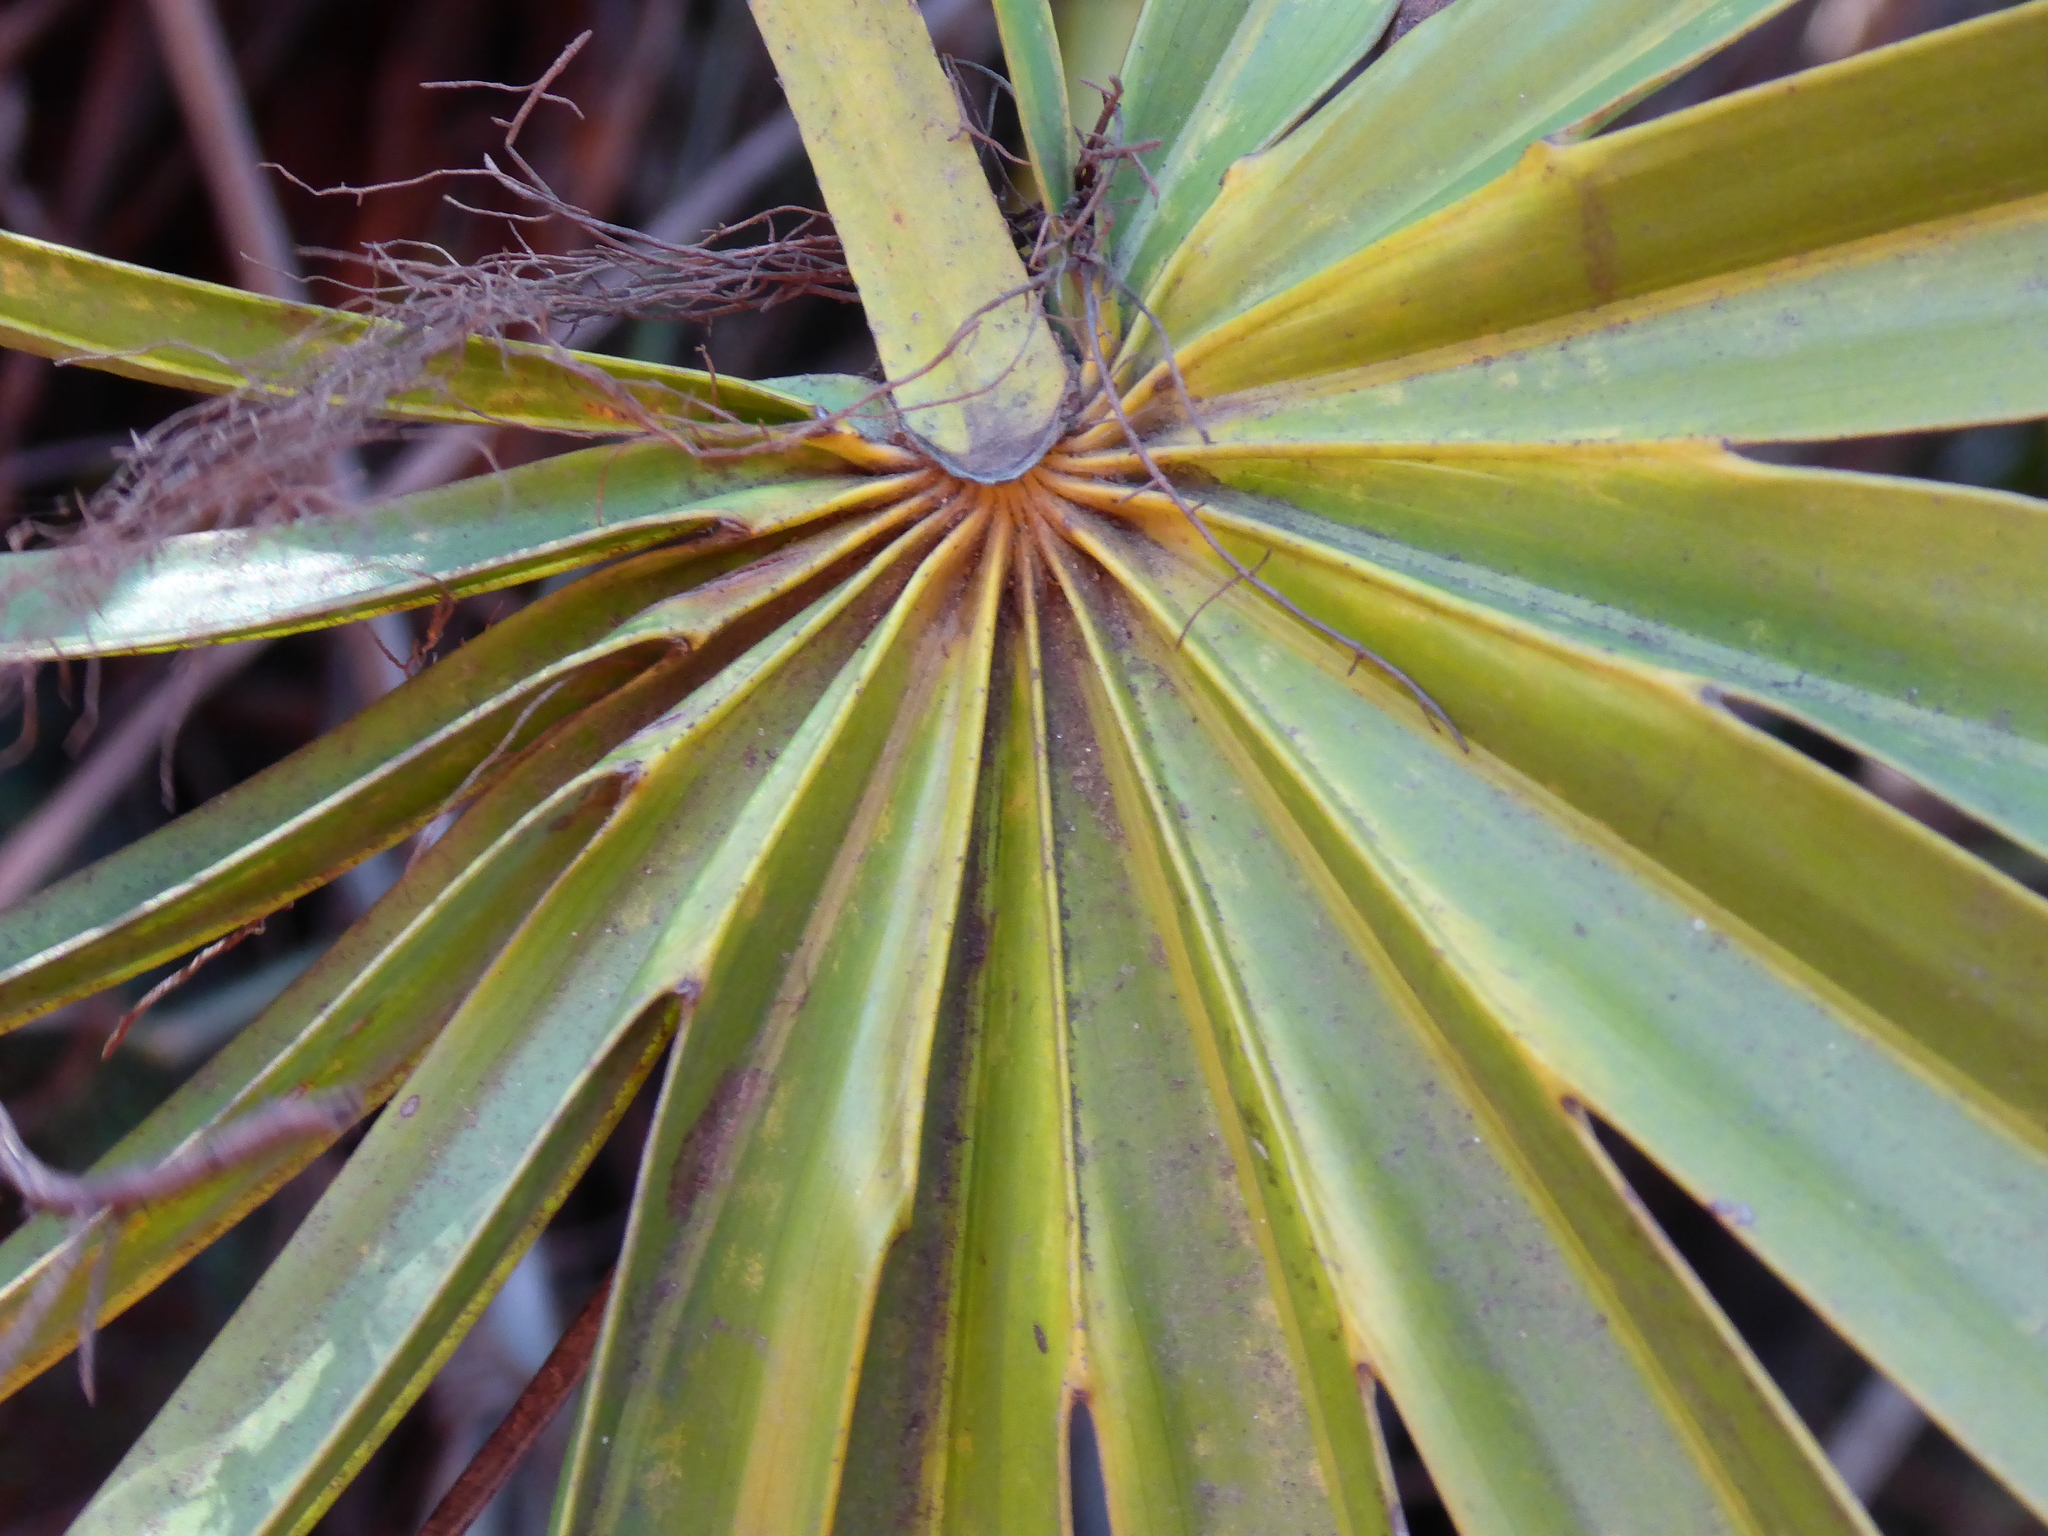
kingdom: Plantae
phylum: Tracheophyta
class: Liliopsida
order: Arecales
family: Arecaceae
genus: Serenoa
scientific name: Serenoa repens
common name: Saw-palmetto
